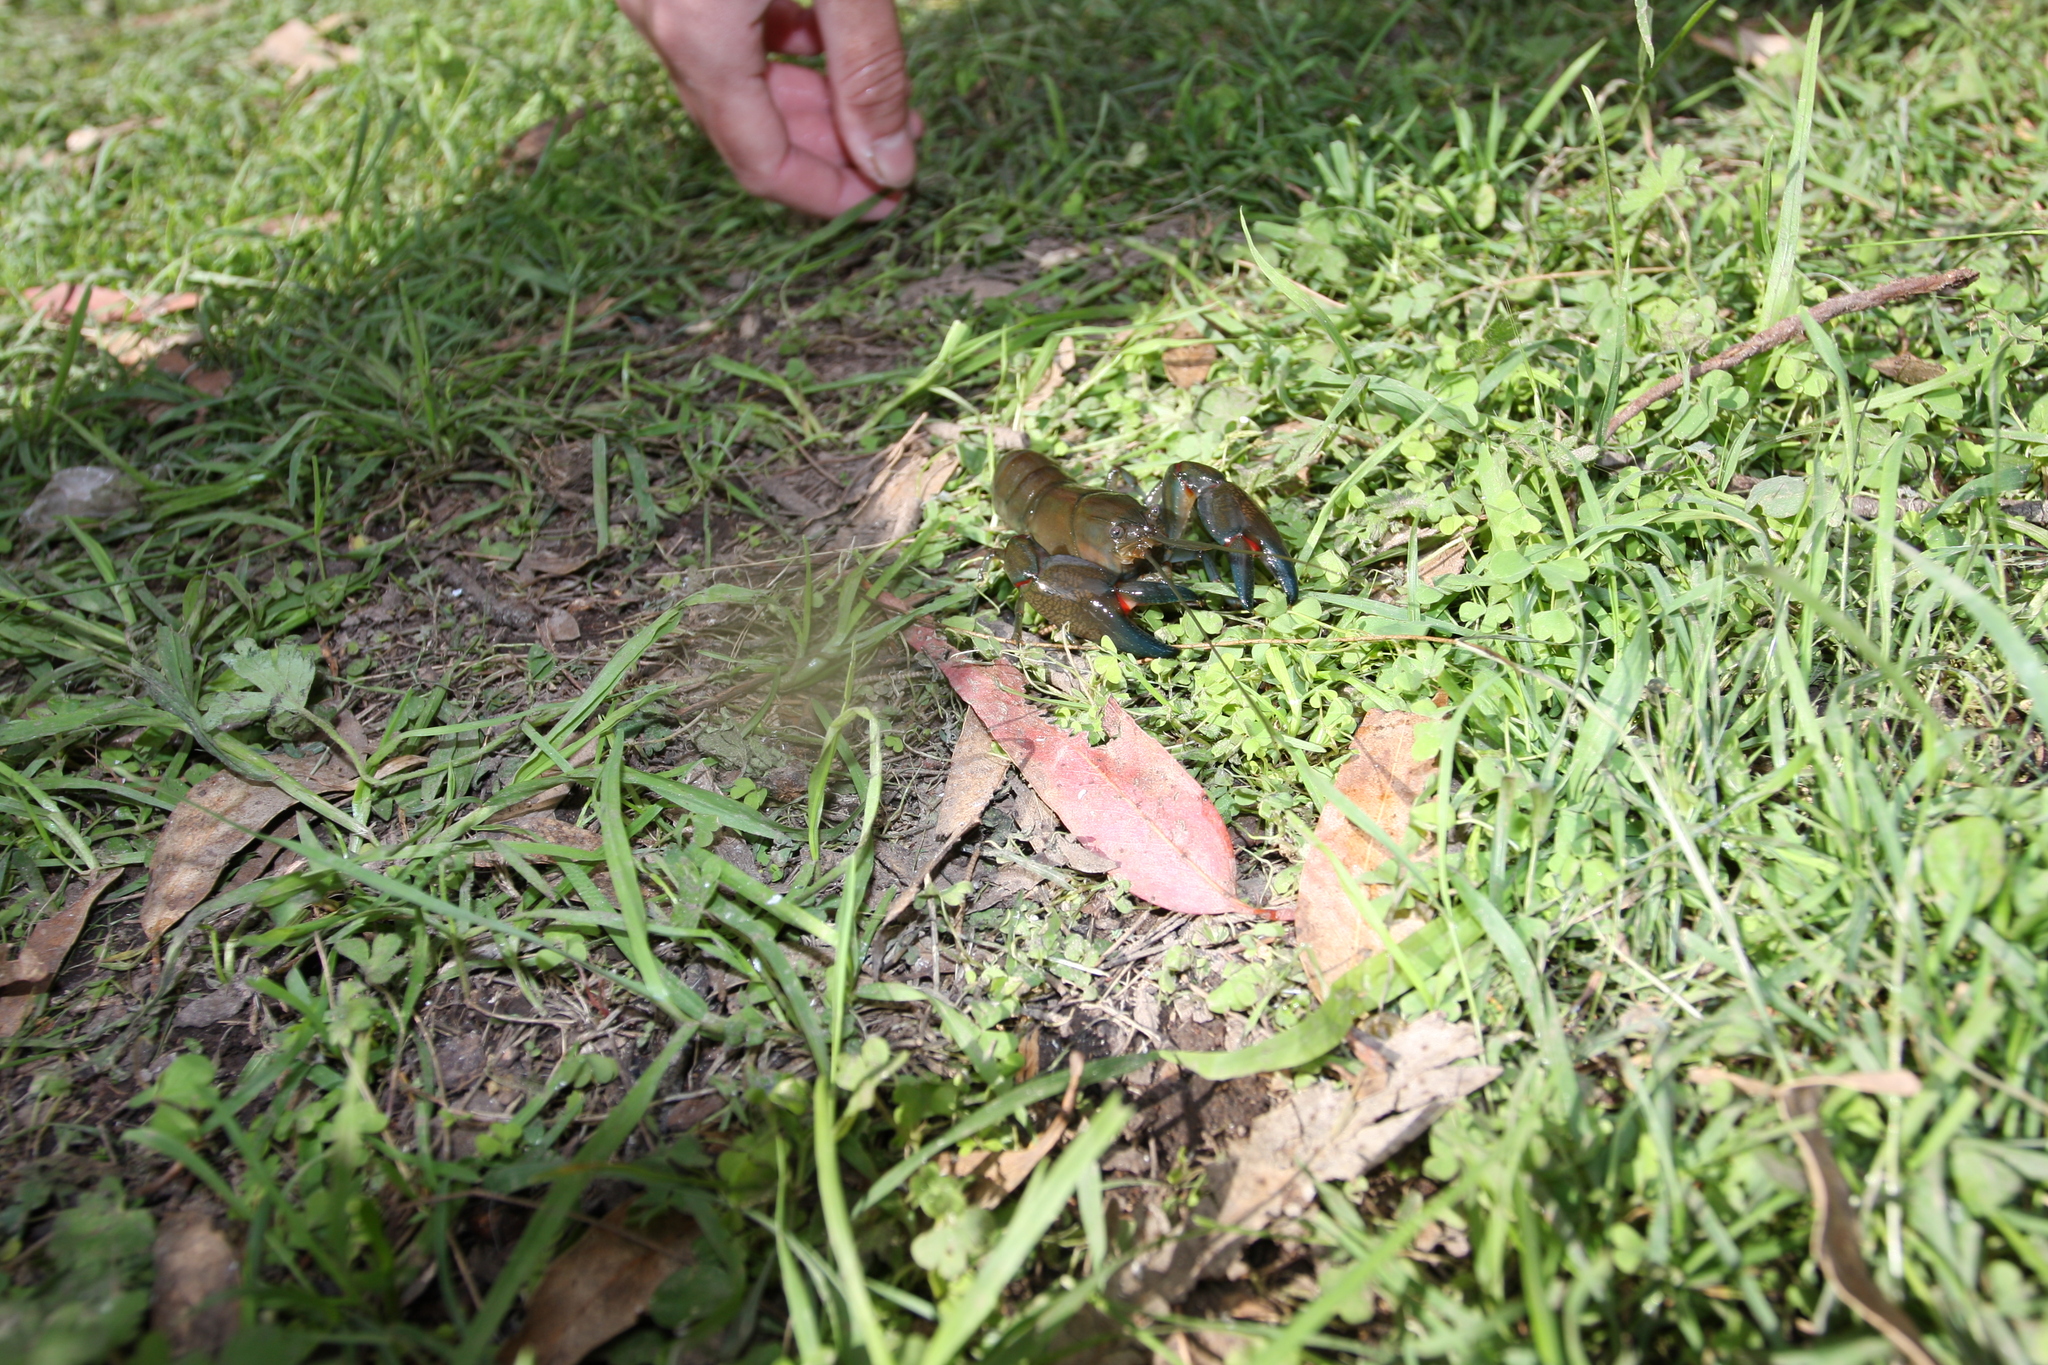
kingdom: Animalia
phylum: Arthropoda
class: Malacostraca
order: Decapoda
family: Parastacidae
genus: Cherax
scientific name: Cherax destructor
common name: Yabby
